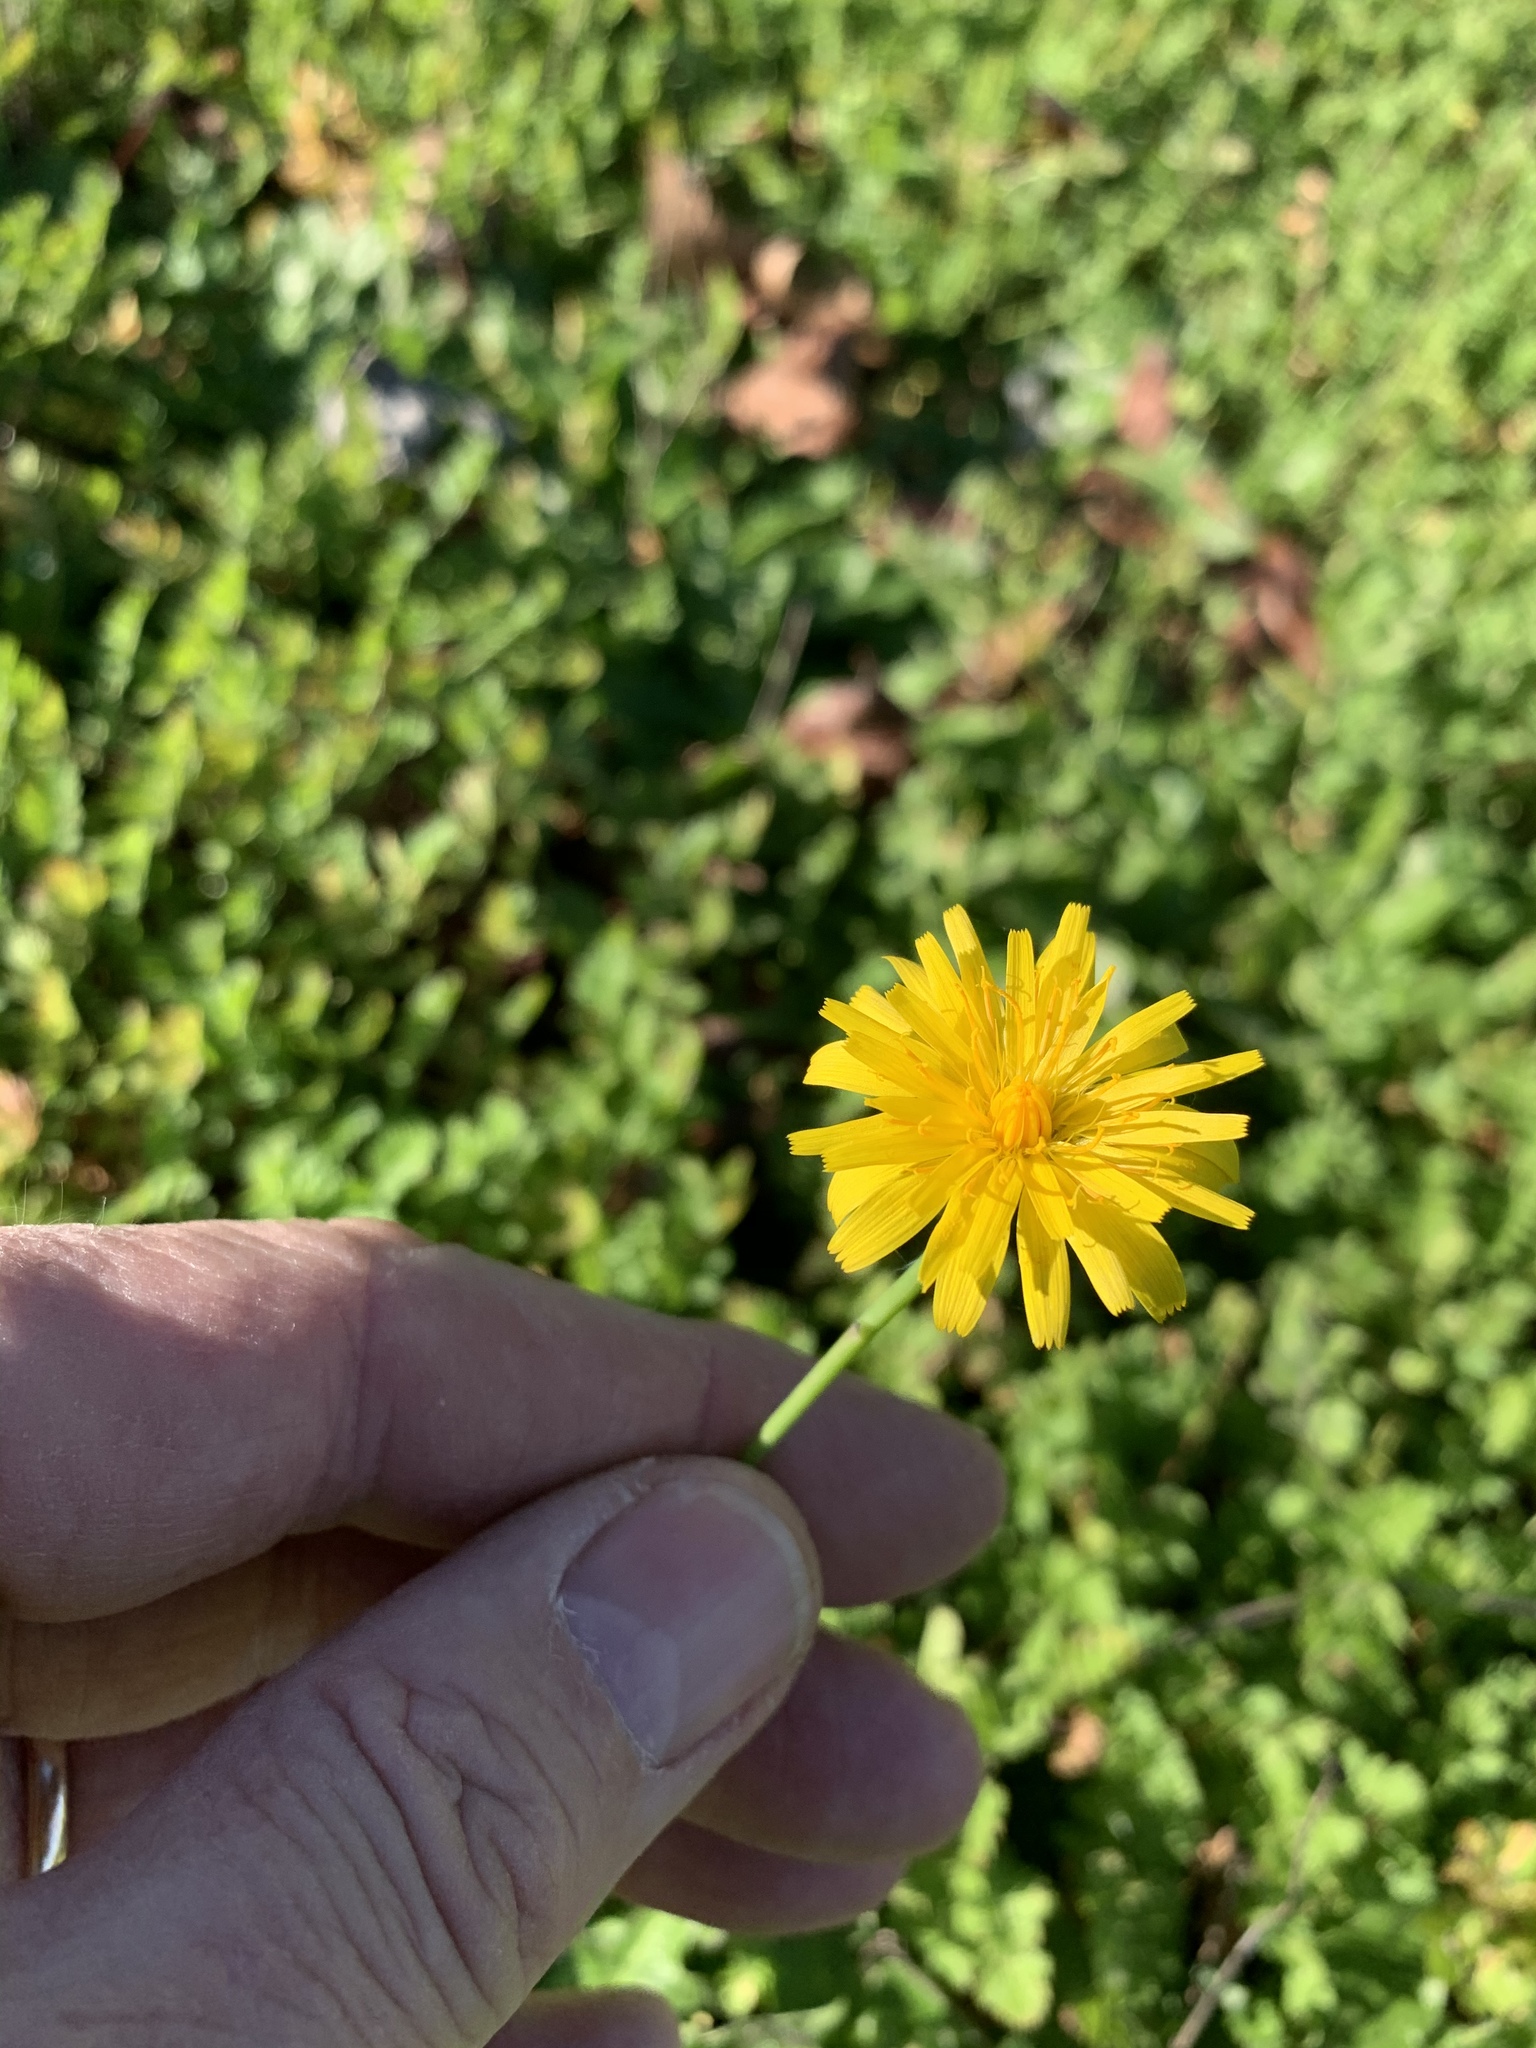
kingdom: Plantae
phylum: Tracheophyta
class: Magnoliopsida
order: Asterales
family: Asteraceae
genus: Hypochaeris
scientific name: Hypochaeris radicata
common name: Flatweed
